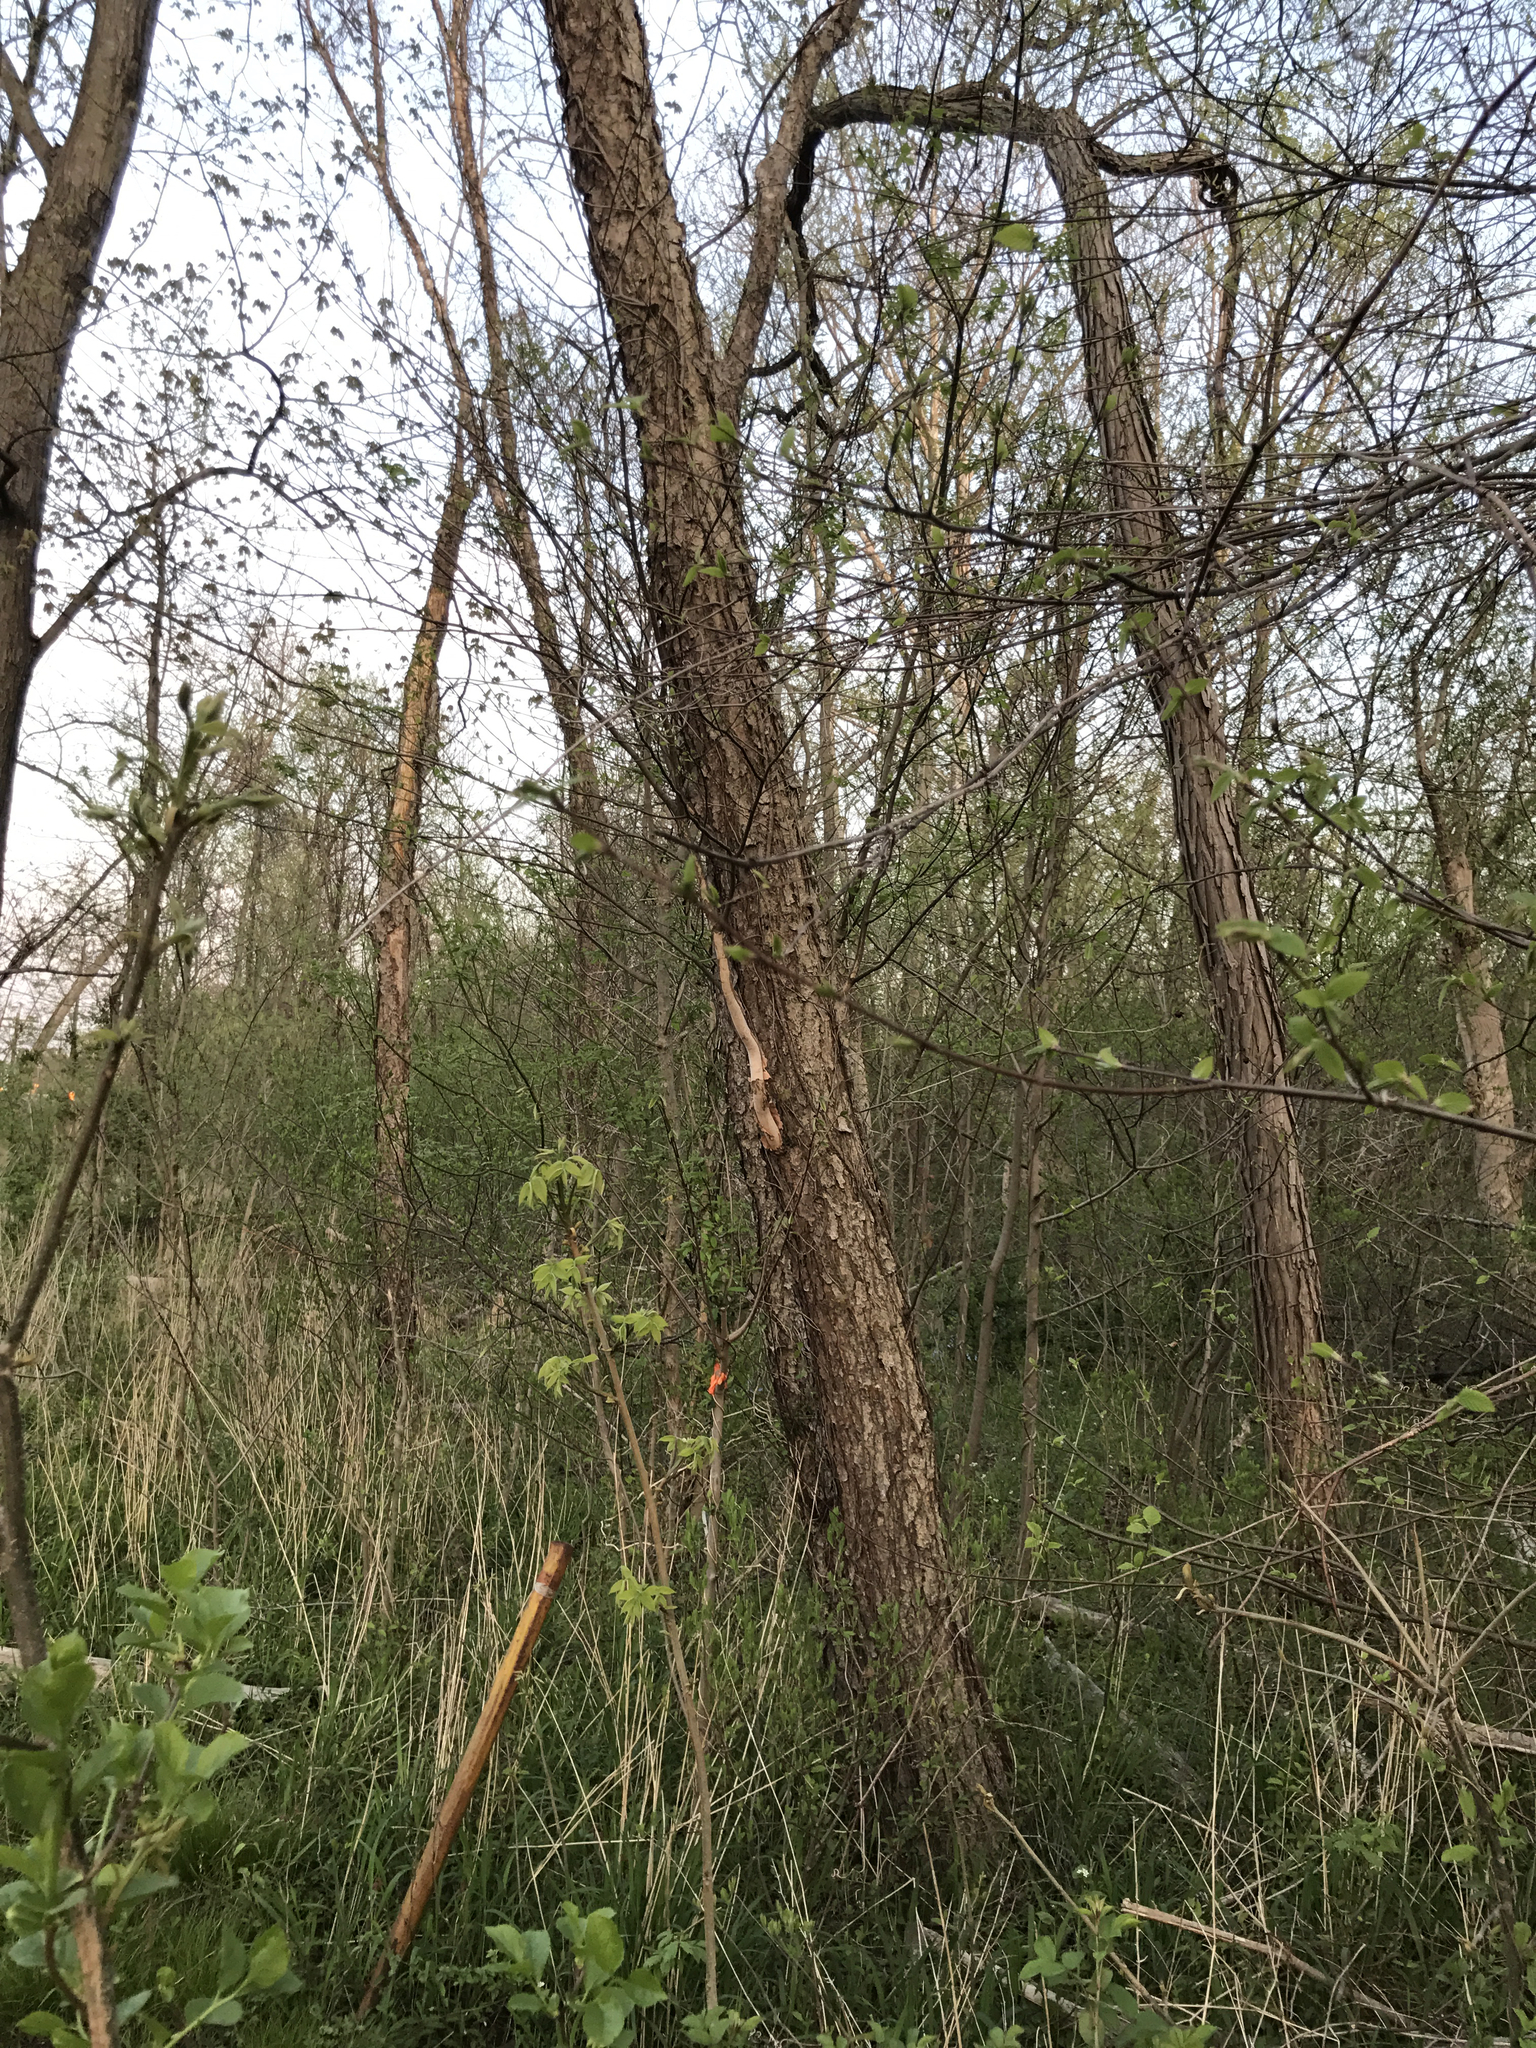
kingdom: Plantae
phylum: Tracheophyta
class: Magnoliopsida
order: Fagales
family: Betulaceae
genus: Betula
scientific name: Betula nigra
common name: Black birch
